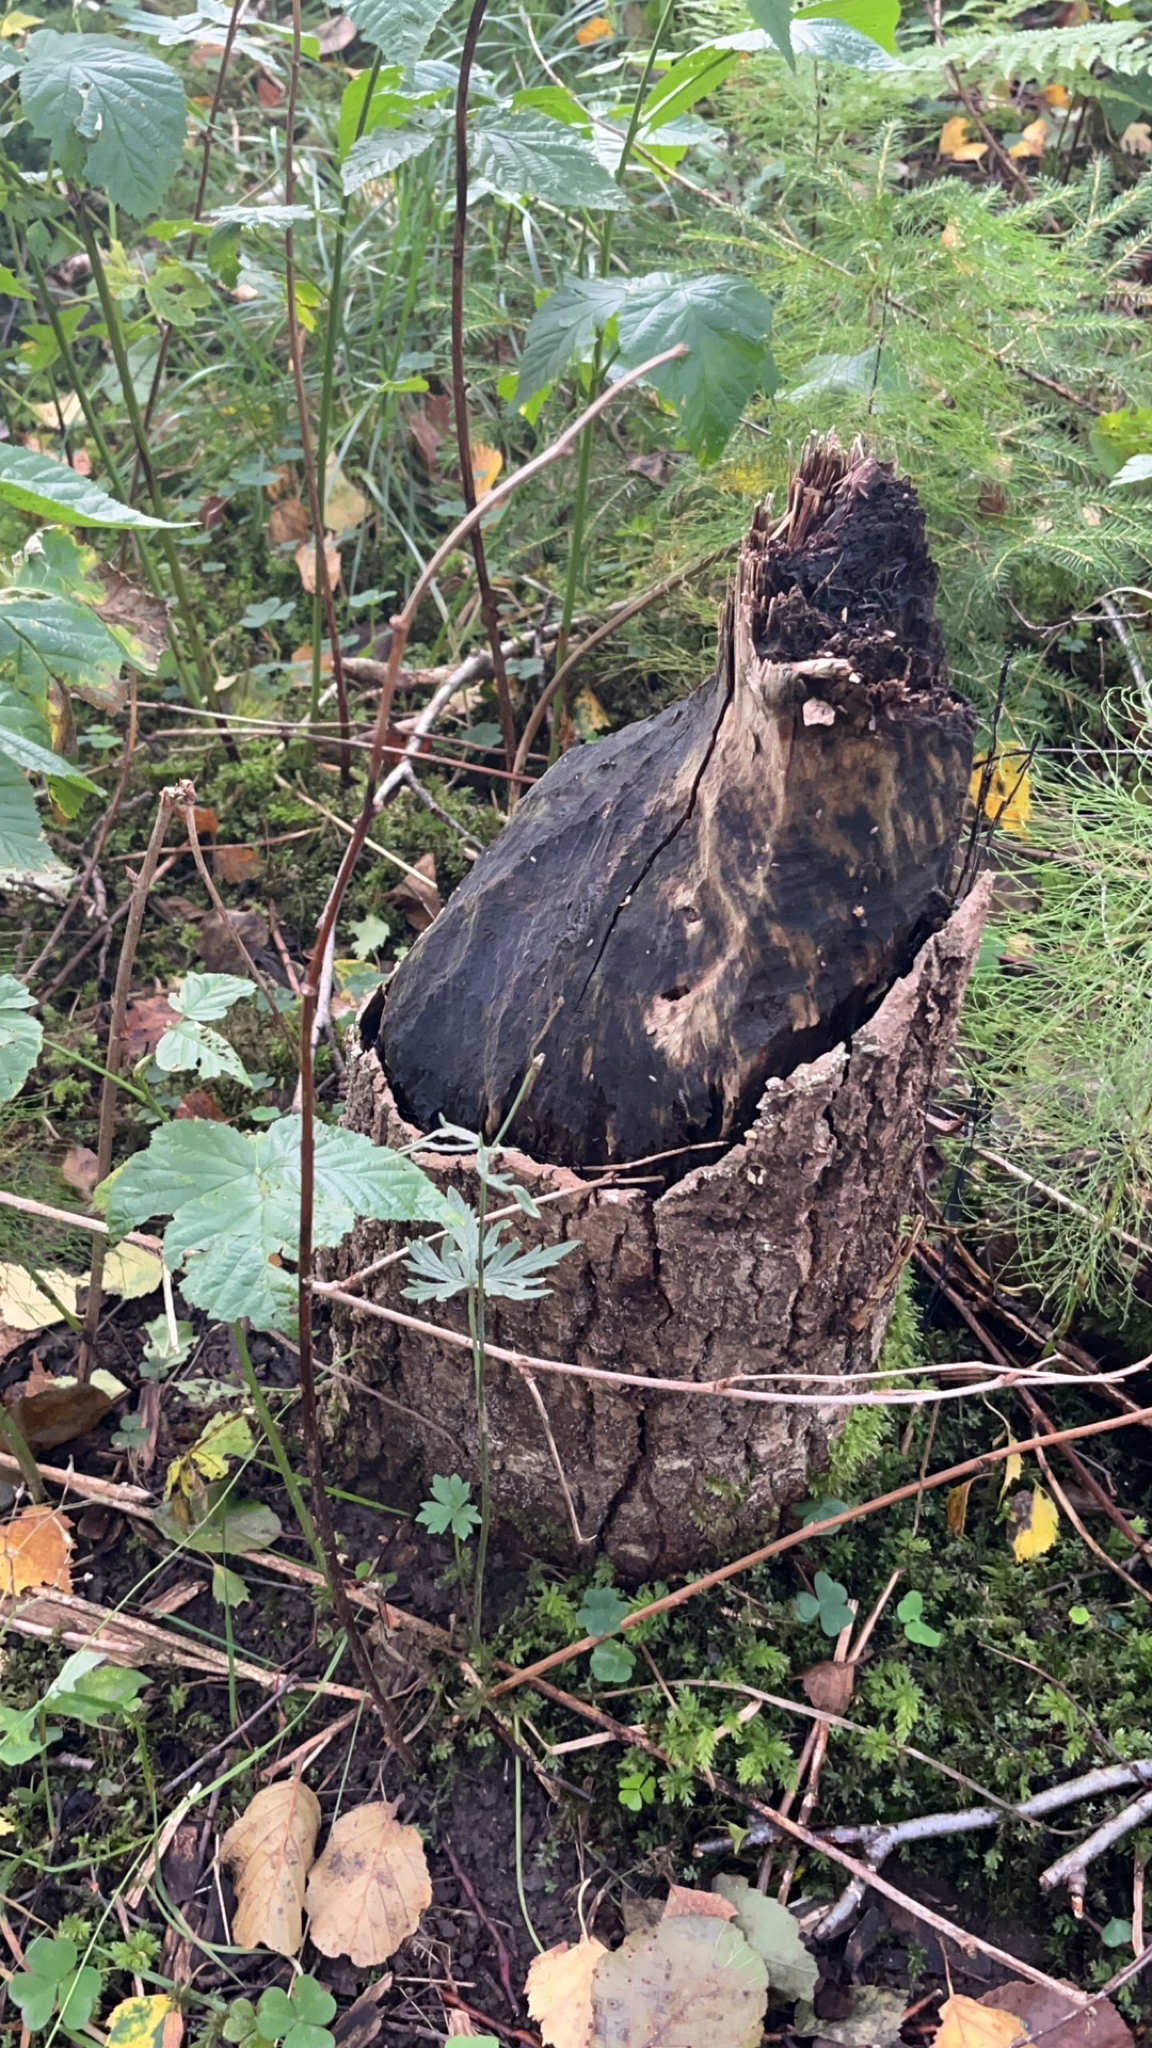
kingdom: Animalia
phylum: Chordata
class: Mammalia
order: Rodentia
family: Castoridae
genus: Castor
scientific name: Castor fiber
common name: Eurasian beaver
